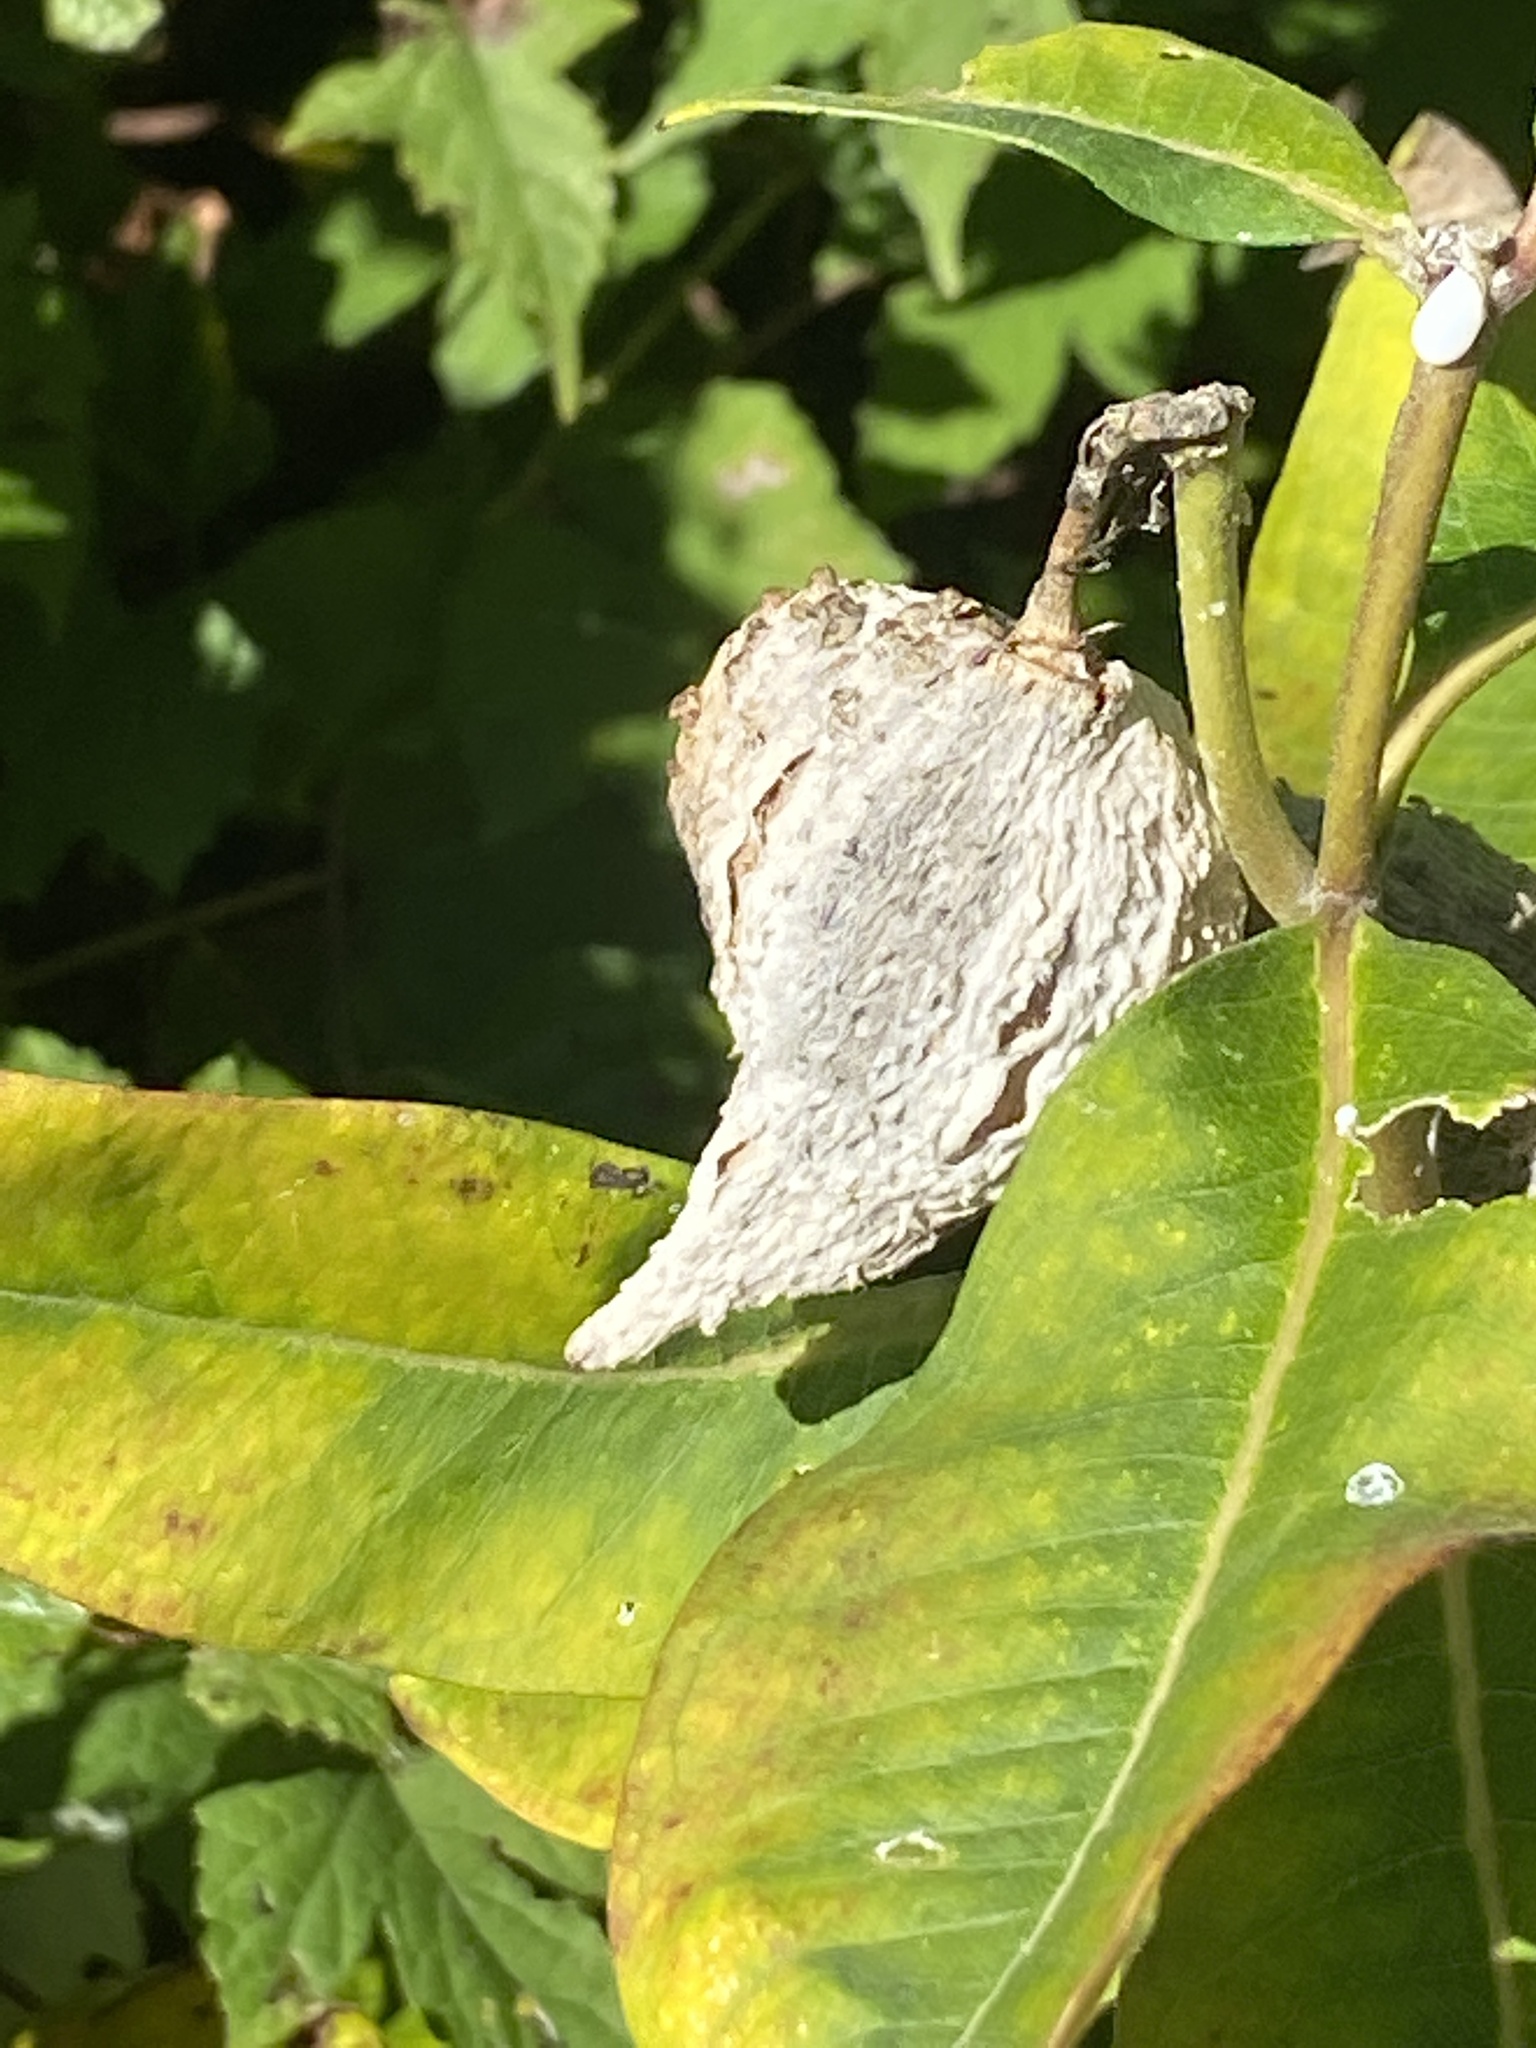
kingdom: Plantae
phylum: Tracheophyta
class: Magnoliopsida
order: Gentianales
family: Apocynaceae
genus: Asclepias
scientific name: Asclepias syriaca
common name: Common milkweed
